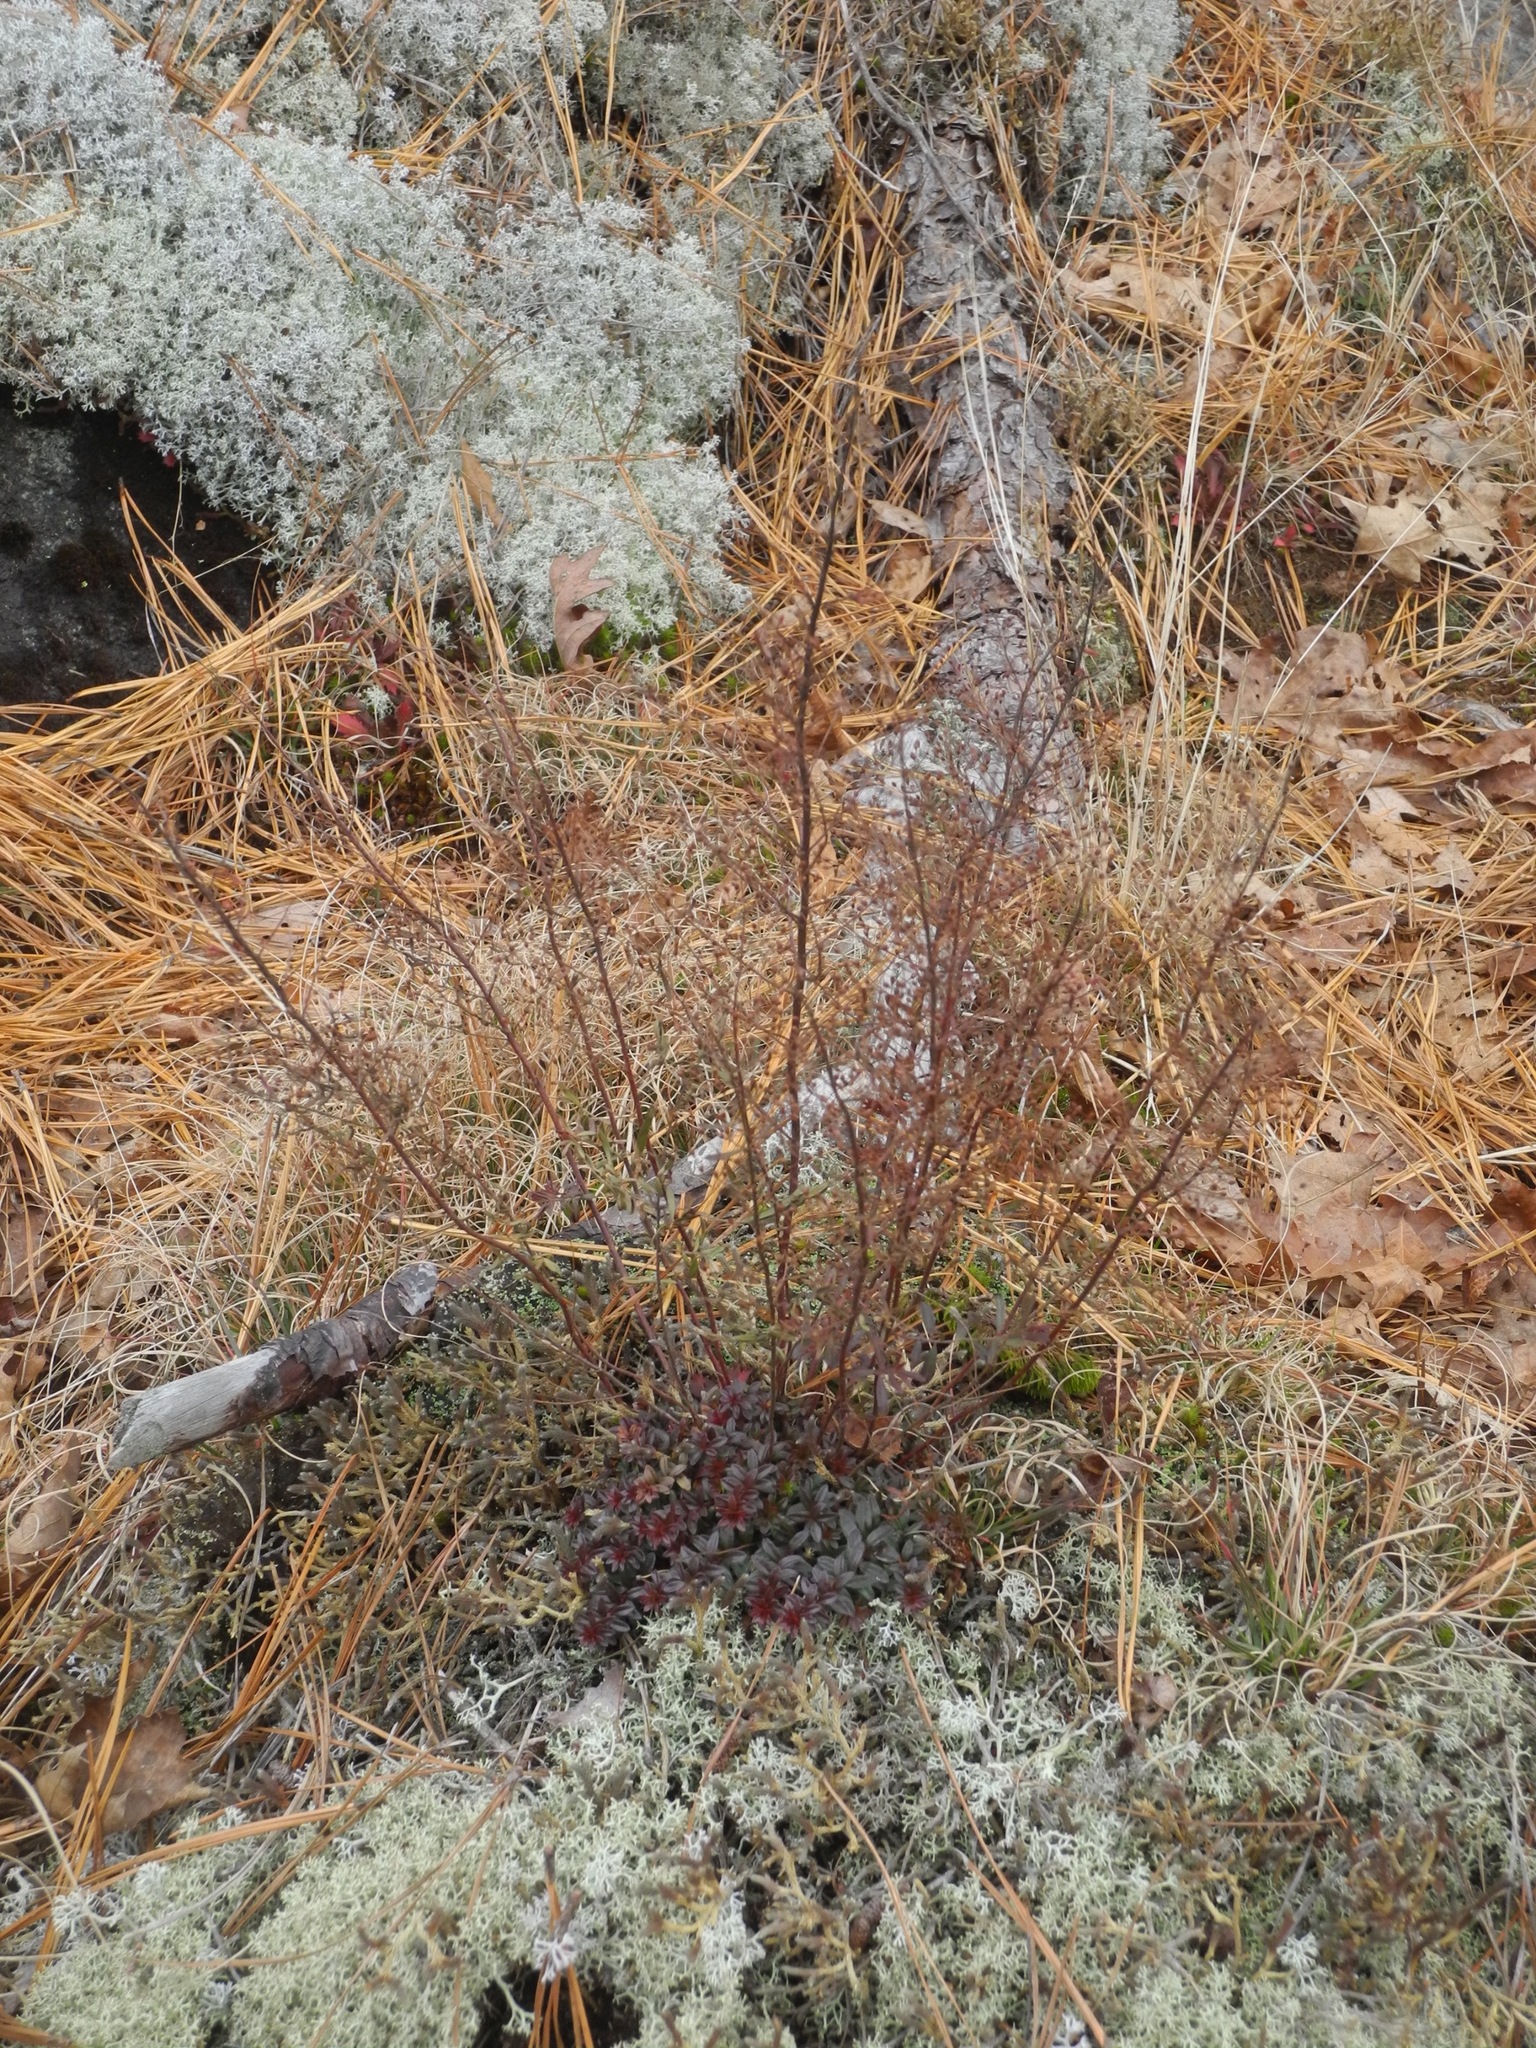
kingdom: Plantae
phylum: Tracheophyta
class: Magnoliopsida
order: Malvales
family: Cistaceae
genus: Lechea
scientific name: Lechea racemulosa
